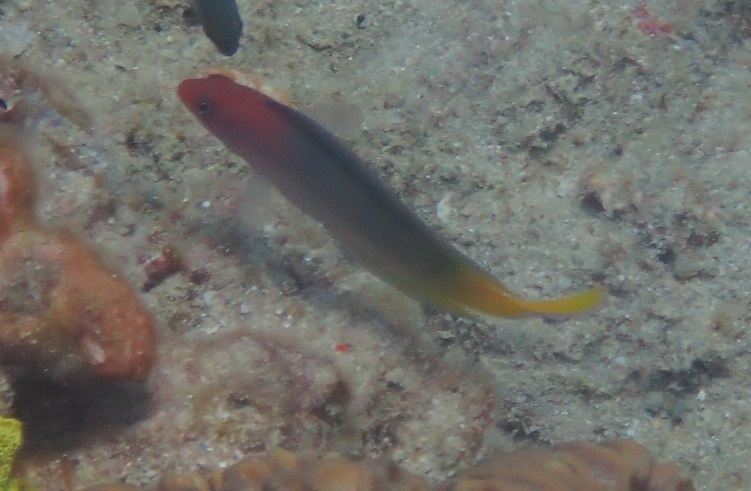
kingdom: Animalia
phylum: Chordata
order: Perciformes
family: Pseudochromidae
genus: Ogilbyina
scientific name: Ogilbyina novaehollandiae
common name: Multicolored dottyback
